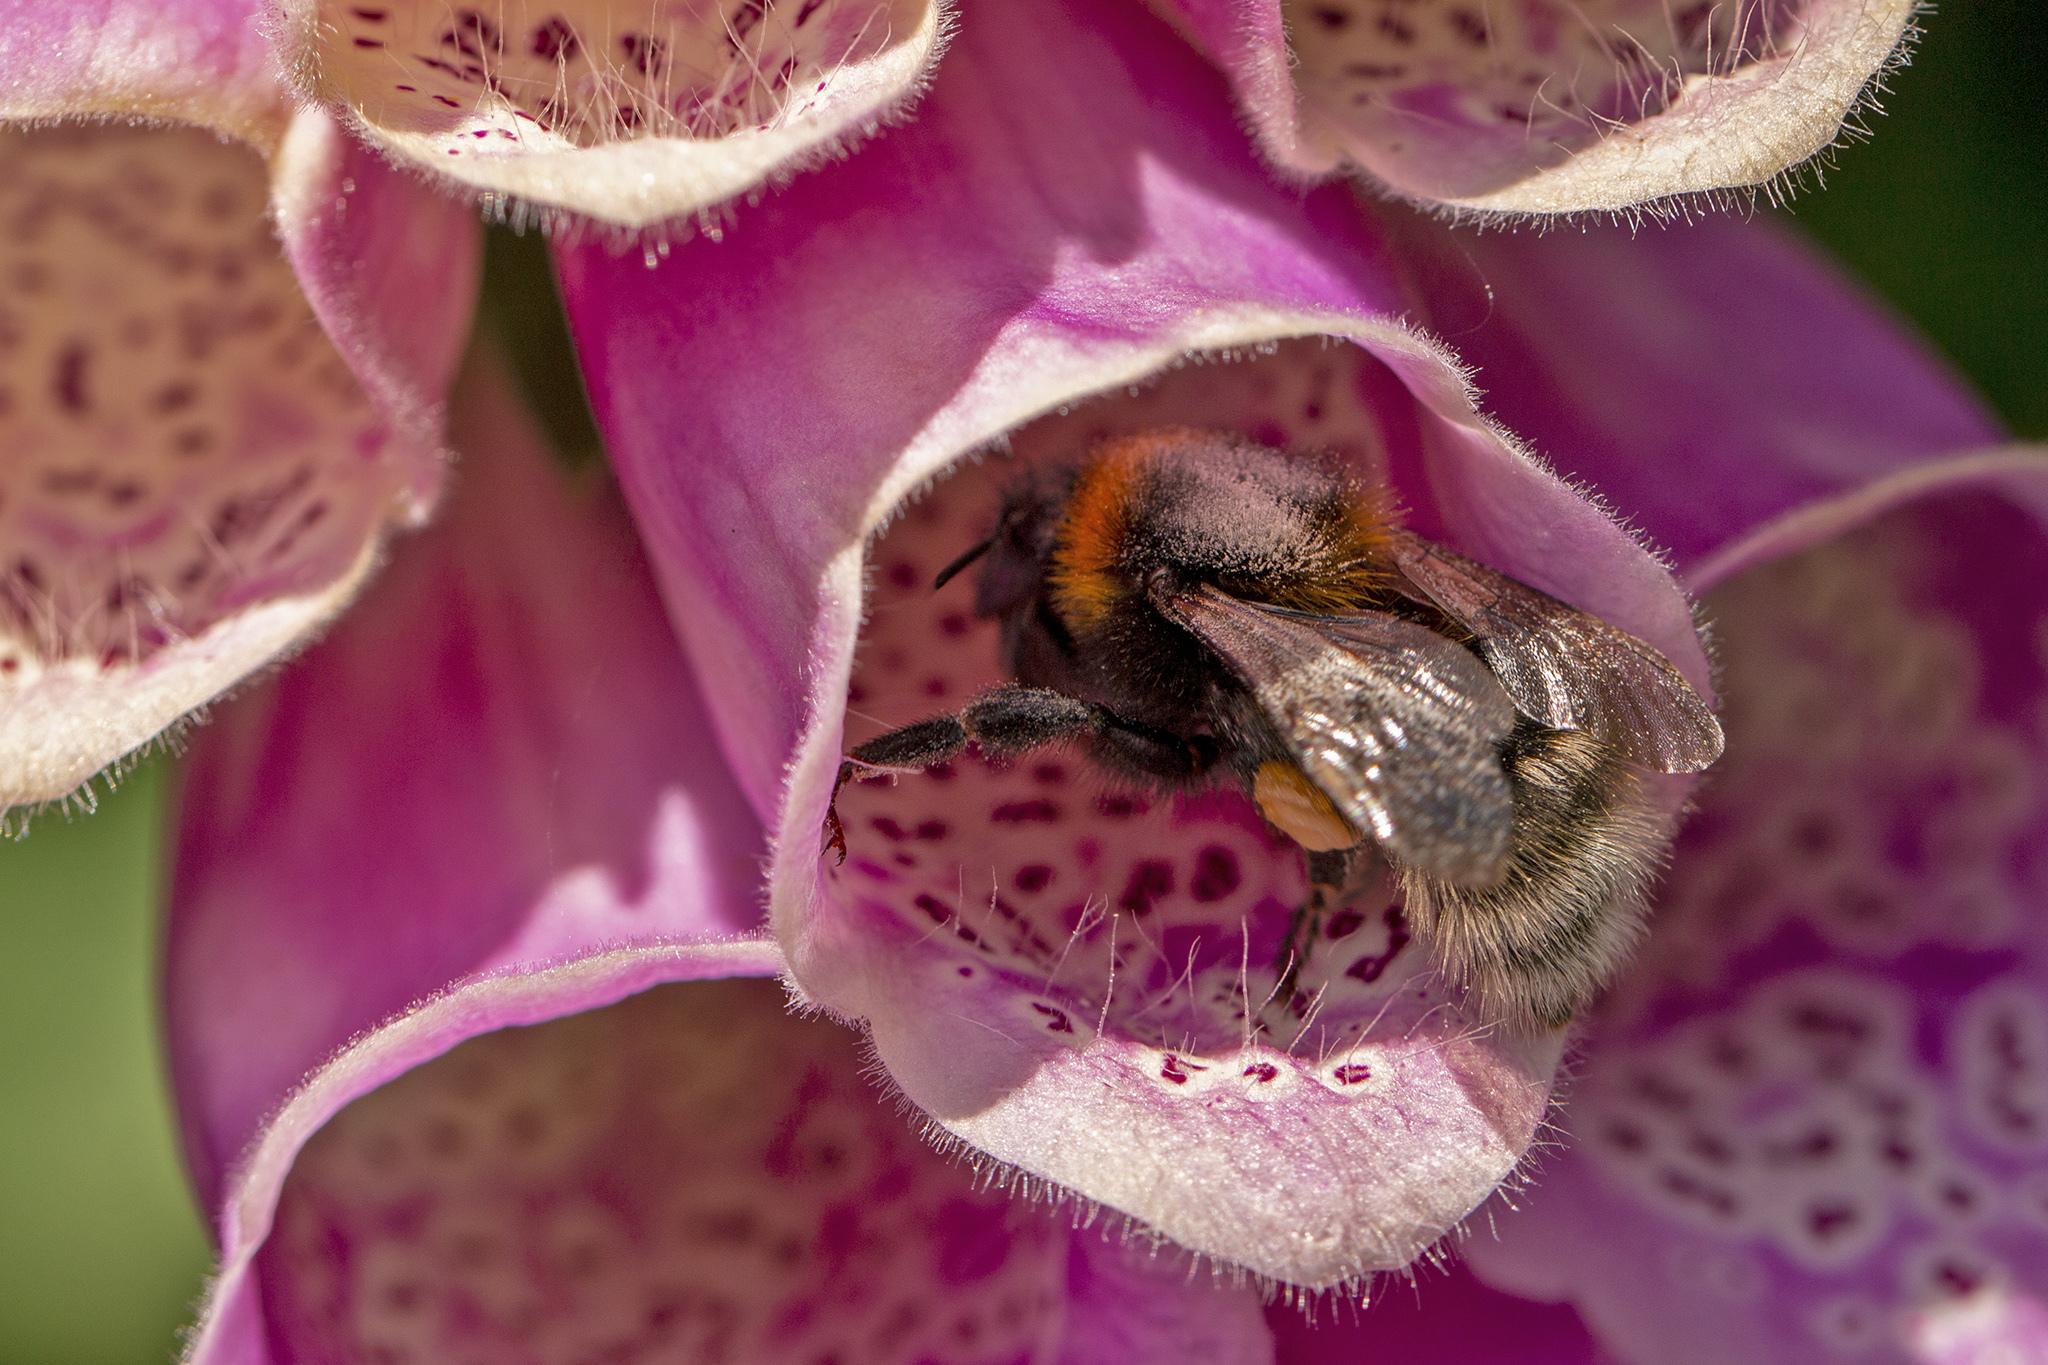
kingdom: Animalia
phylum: Arthropoda
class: Insecta
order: Hymenoptera
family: Apidae
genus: Bombus
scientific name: Bombus hortorum
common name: Garden bumblebee
